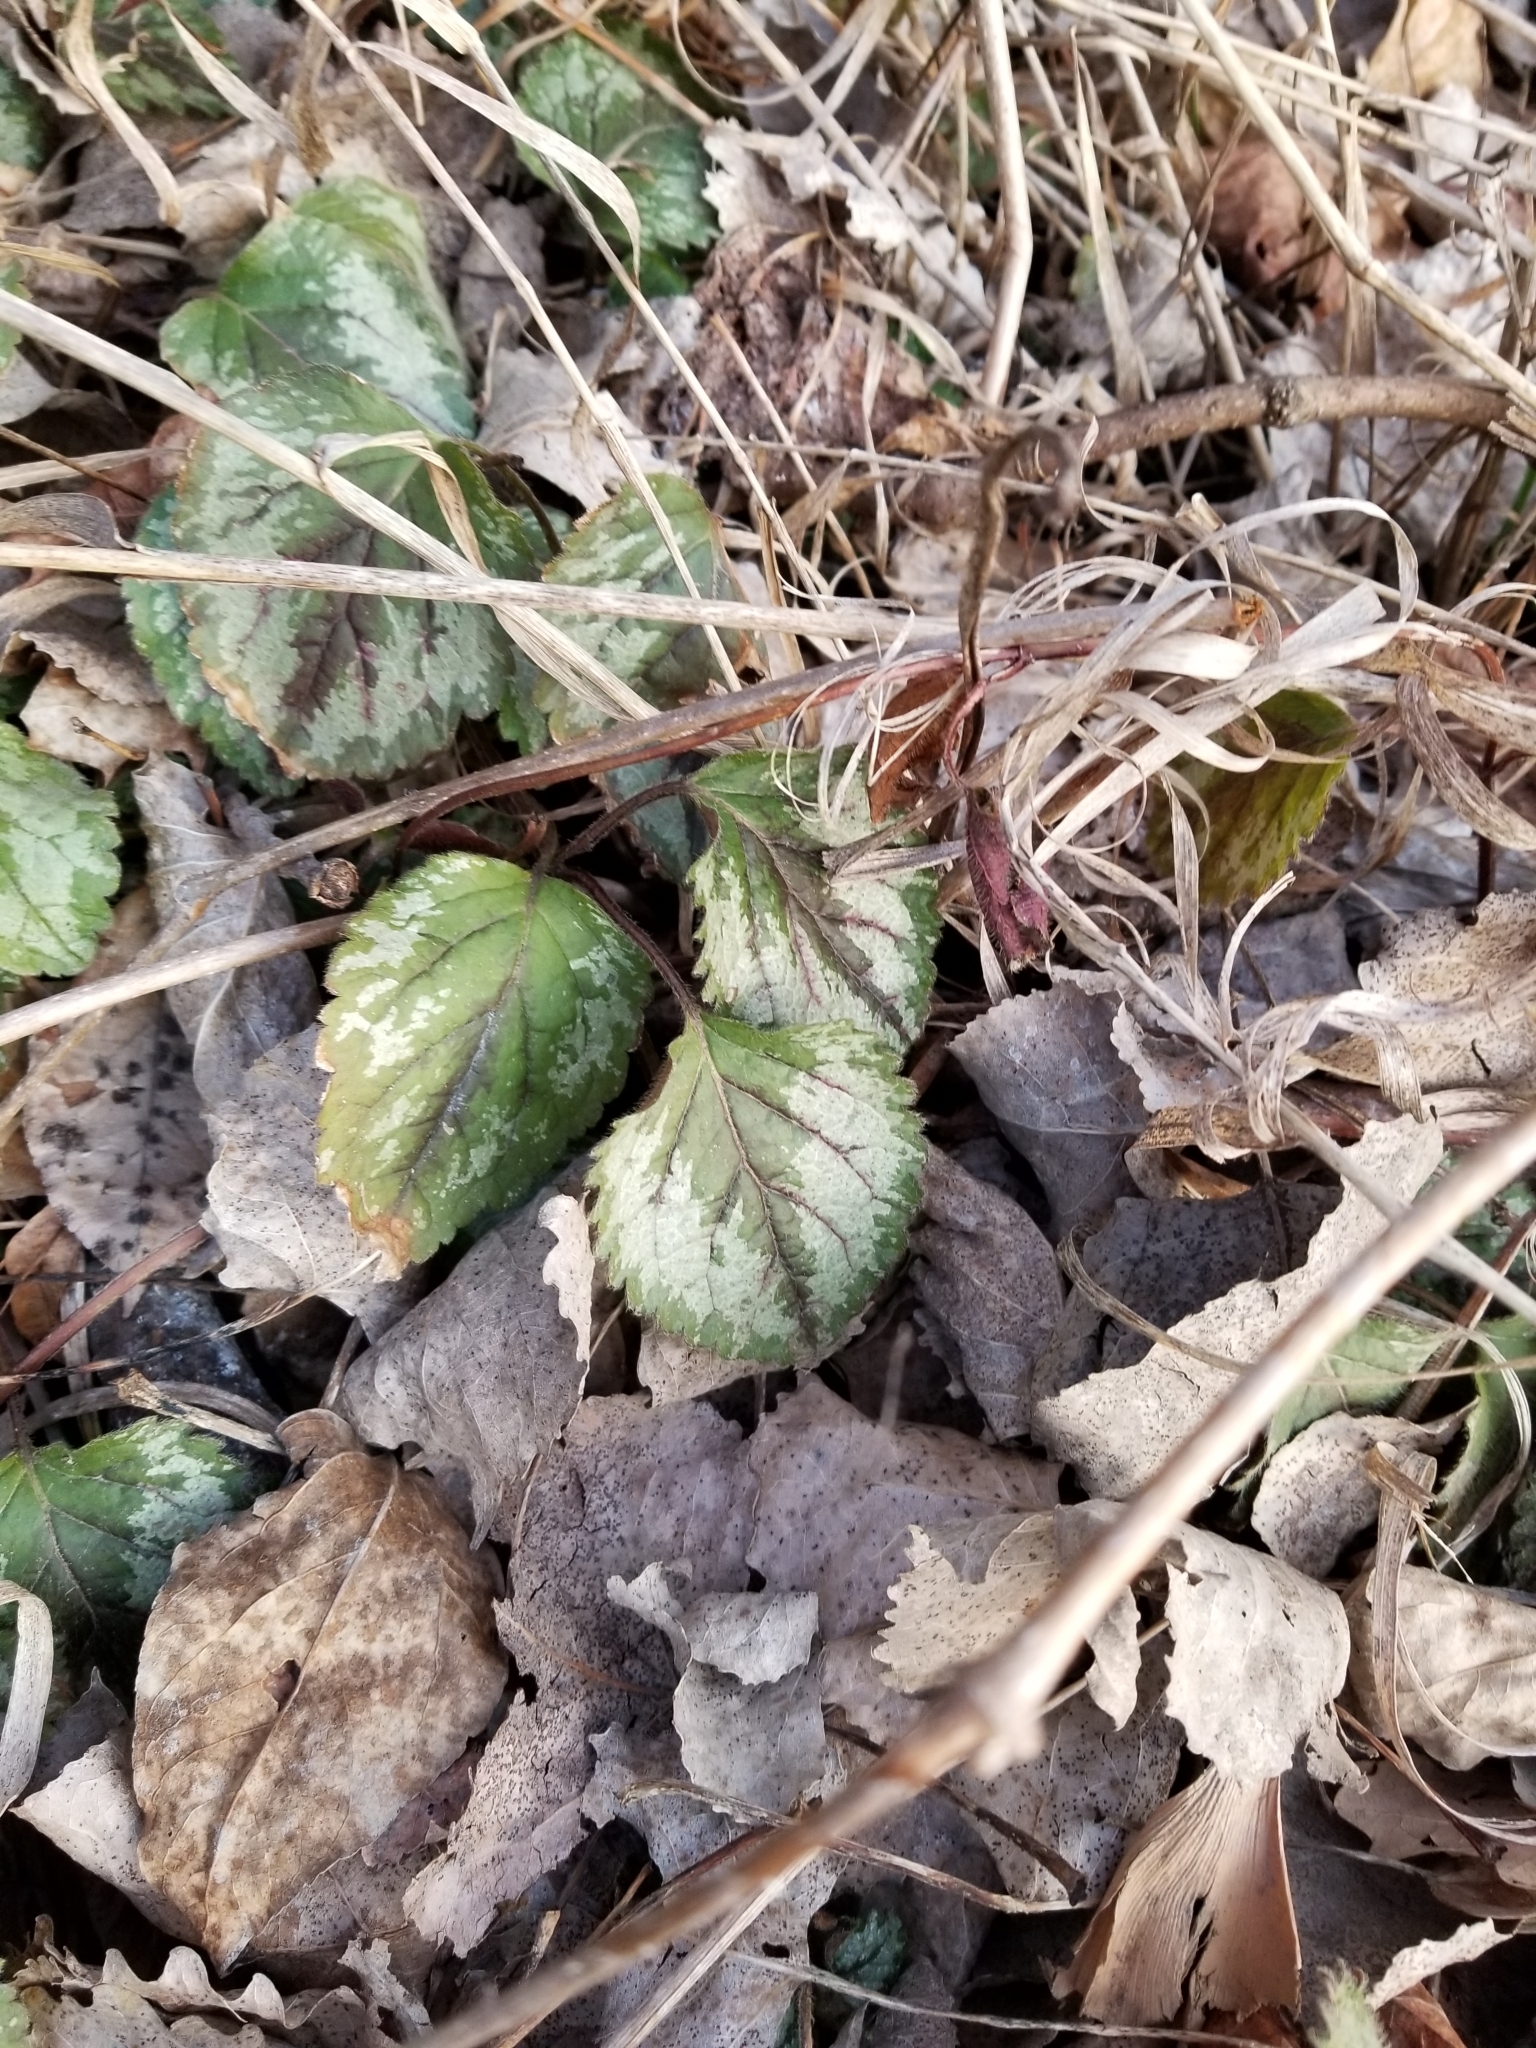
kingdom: Plantae
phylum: Tracheophyta
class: Magnoliopsida
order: Lamiales
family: Lamiaceae
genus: Lamium
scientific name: Lamium galeobdolon
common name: Yellow archangel
